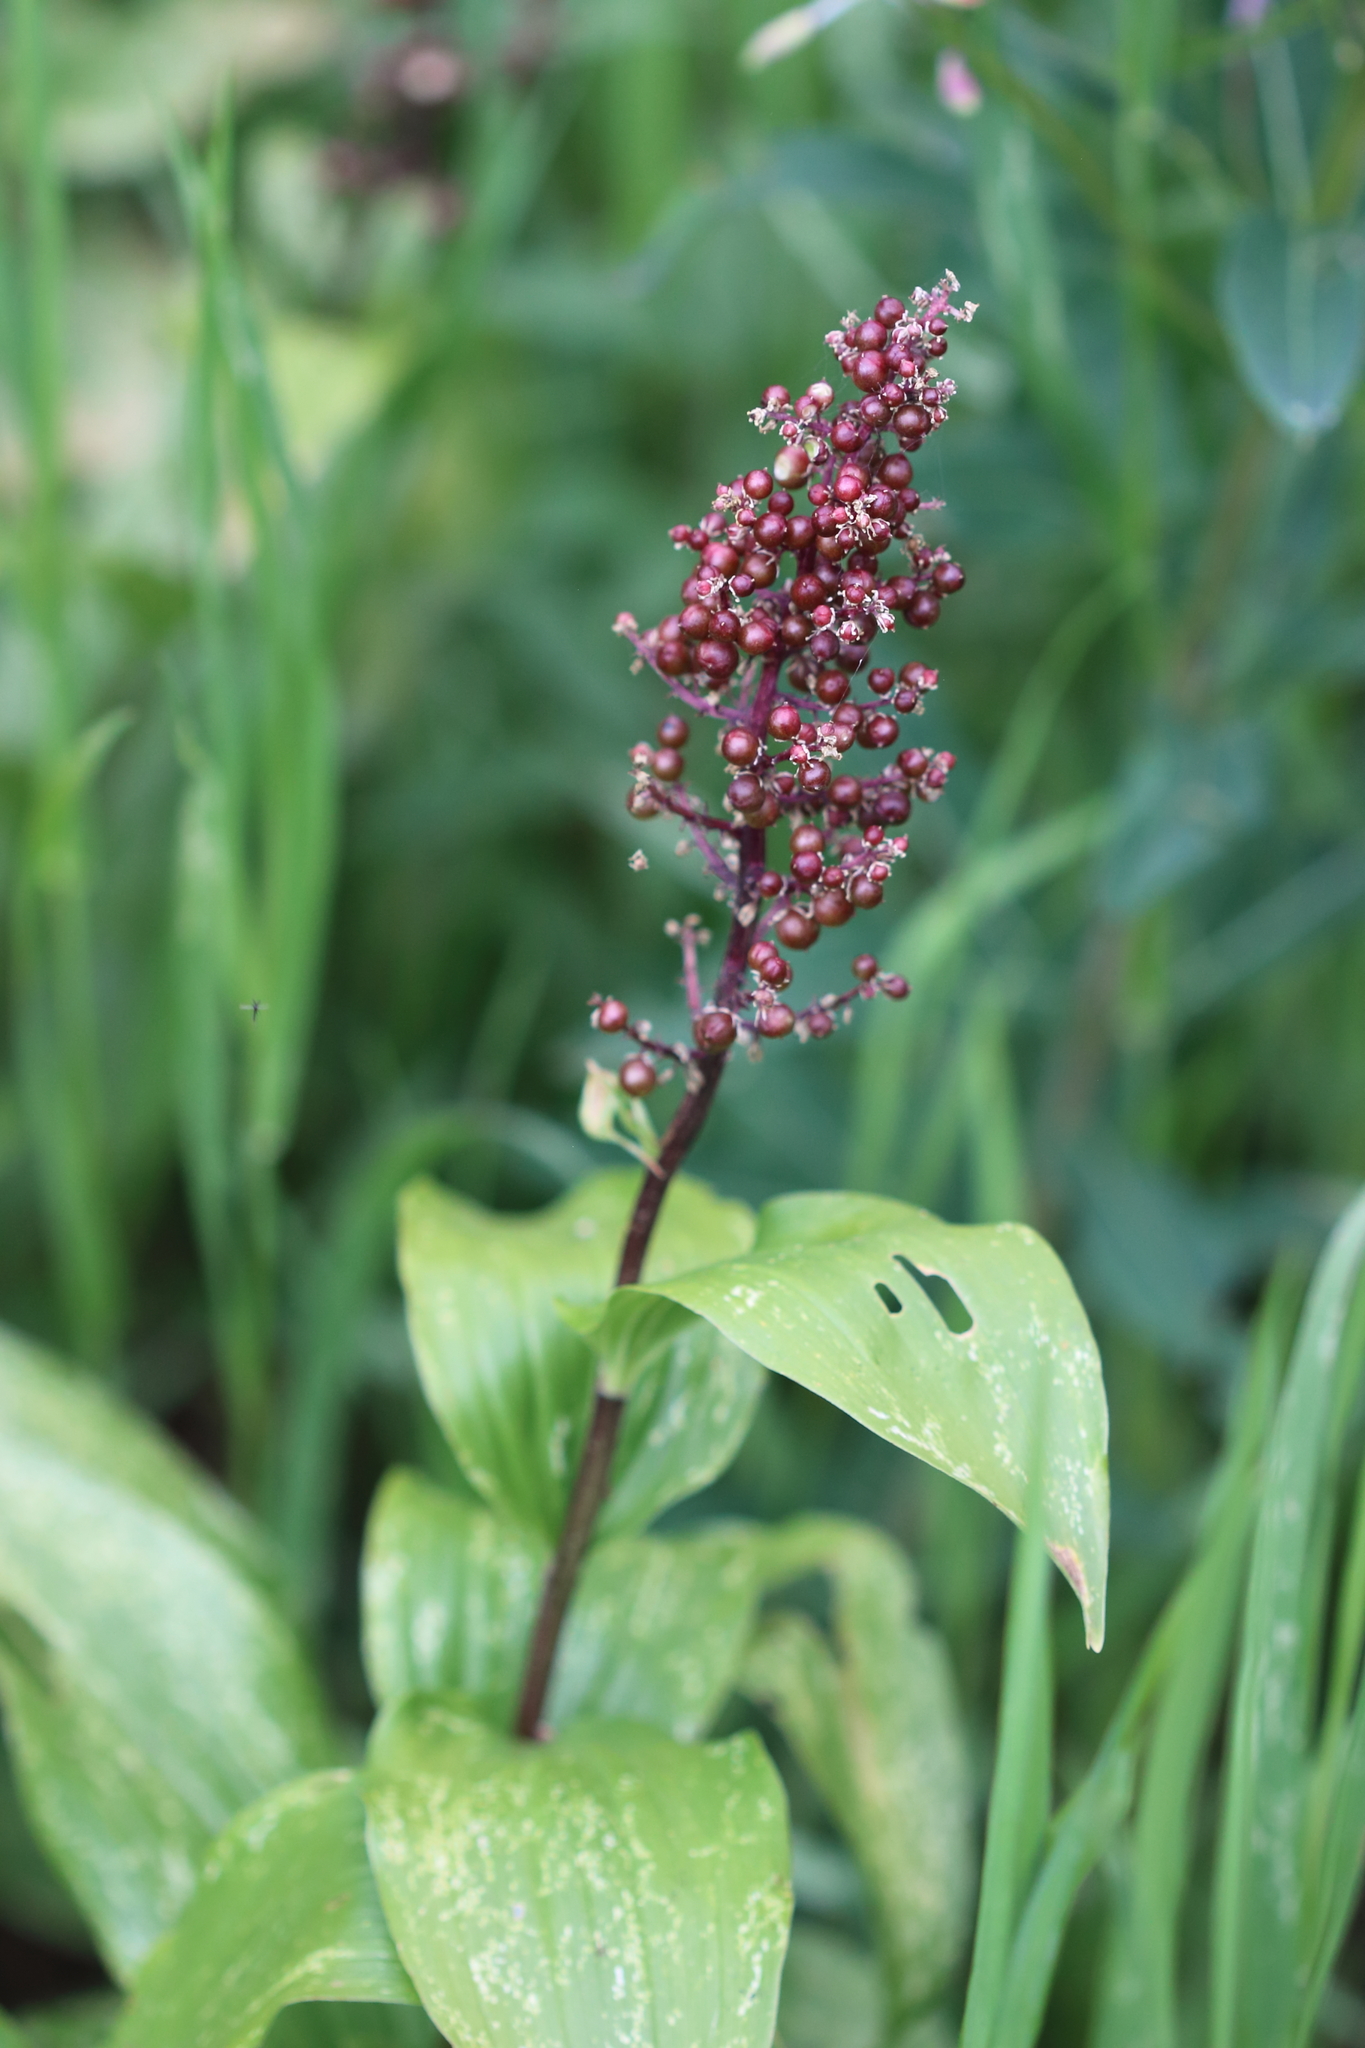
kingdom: Plantae
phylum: Tracheophyta
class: Liliopsida
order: Asparagales
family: Asparagaceae
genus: Maianthemum
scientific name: Maianthemum racemosum
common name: False spikenard
